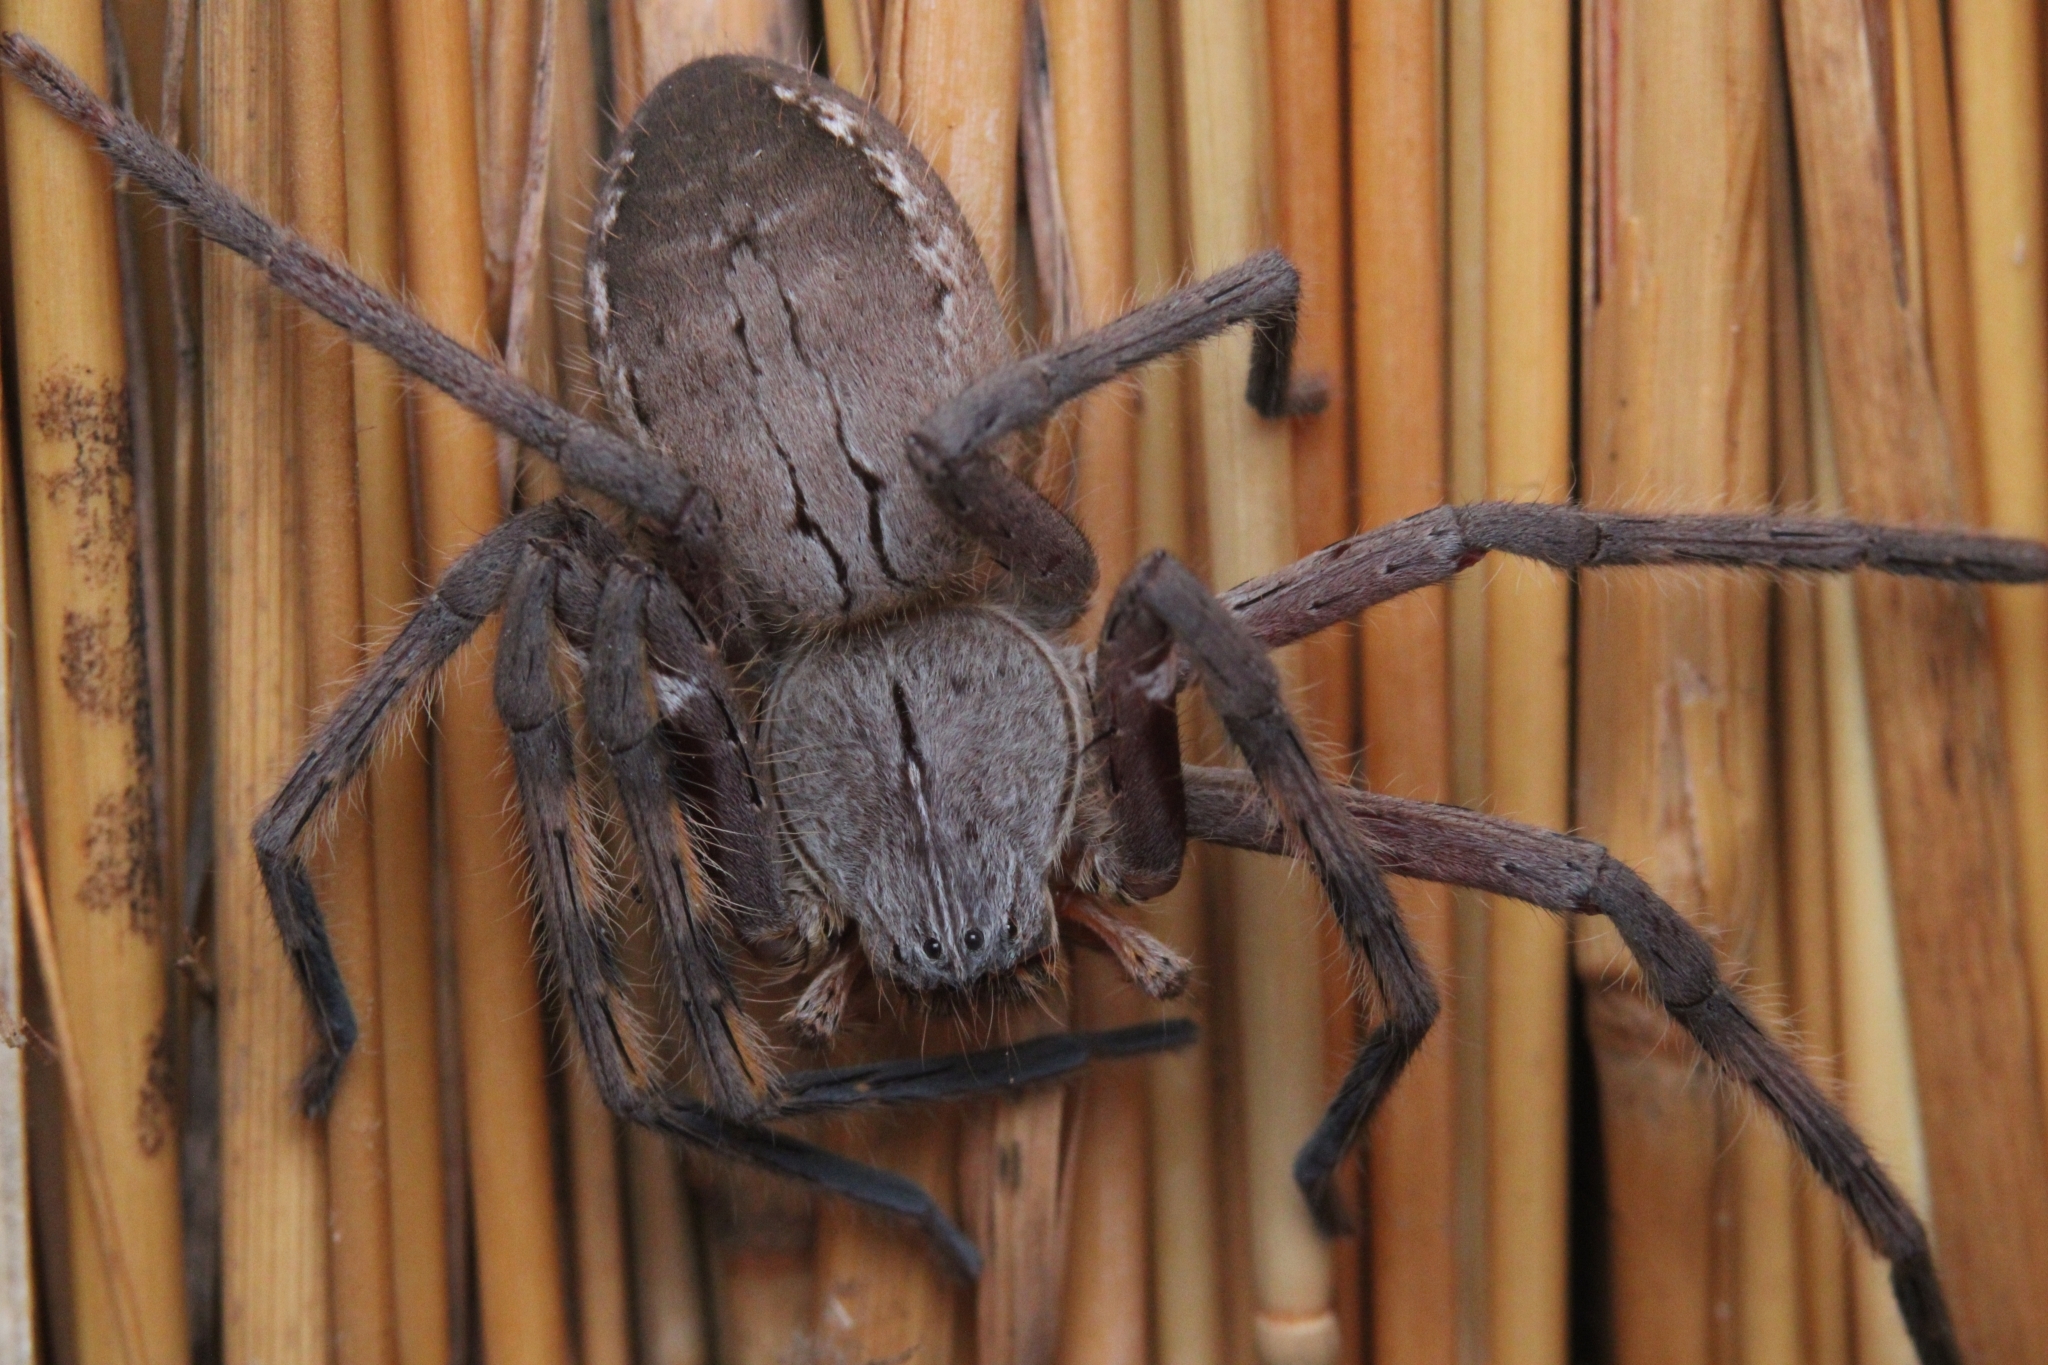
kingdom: Animalia
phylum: Arthropoda
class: Arachnida
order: Araneae
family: Sparassidae
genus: Palystes
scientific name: Palystes johnstoni
